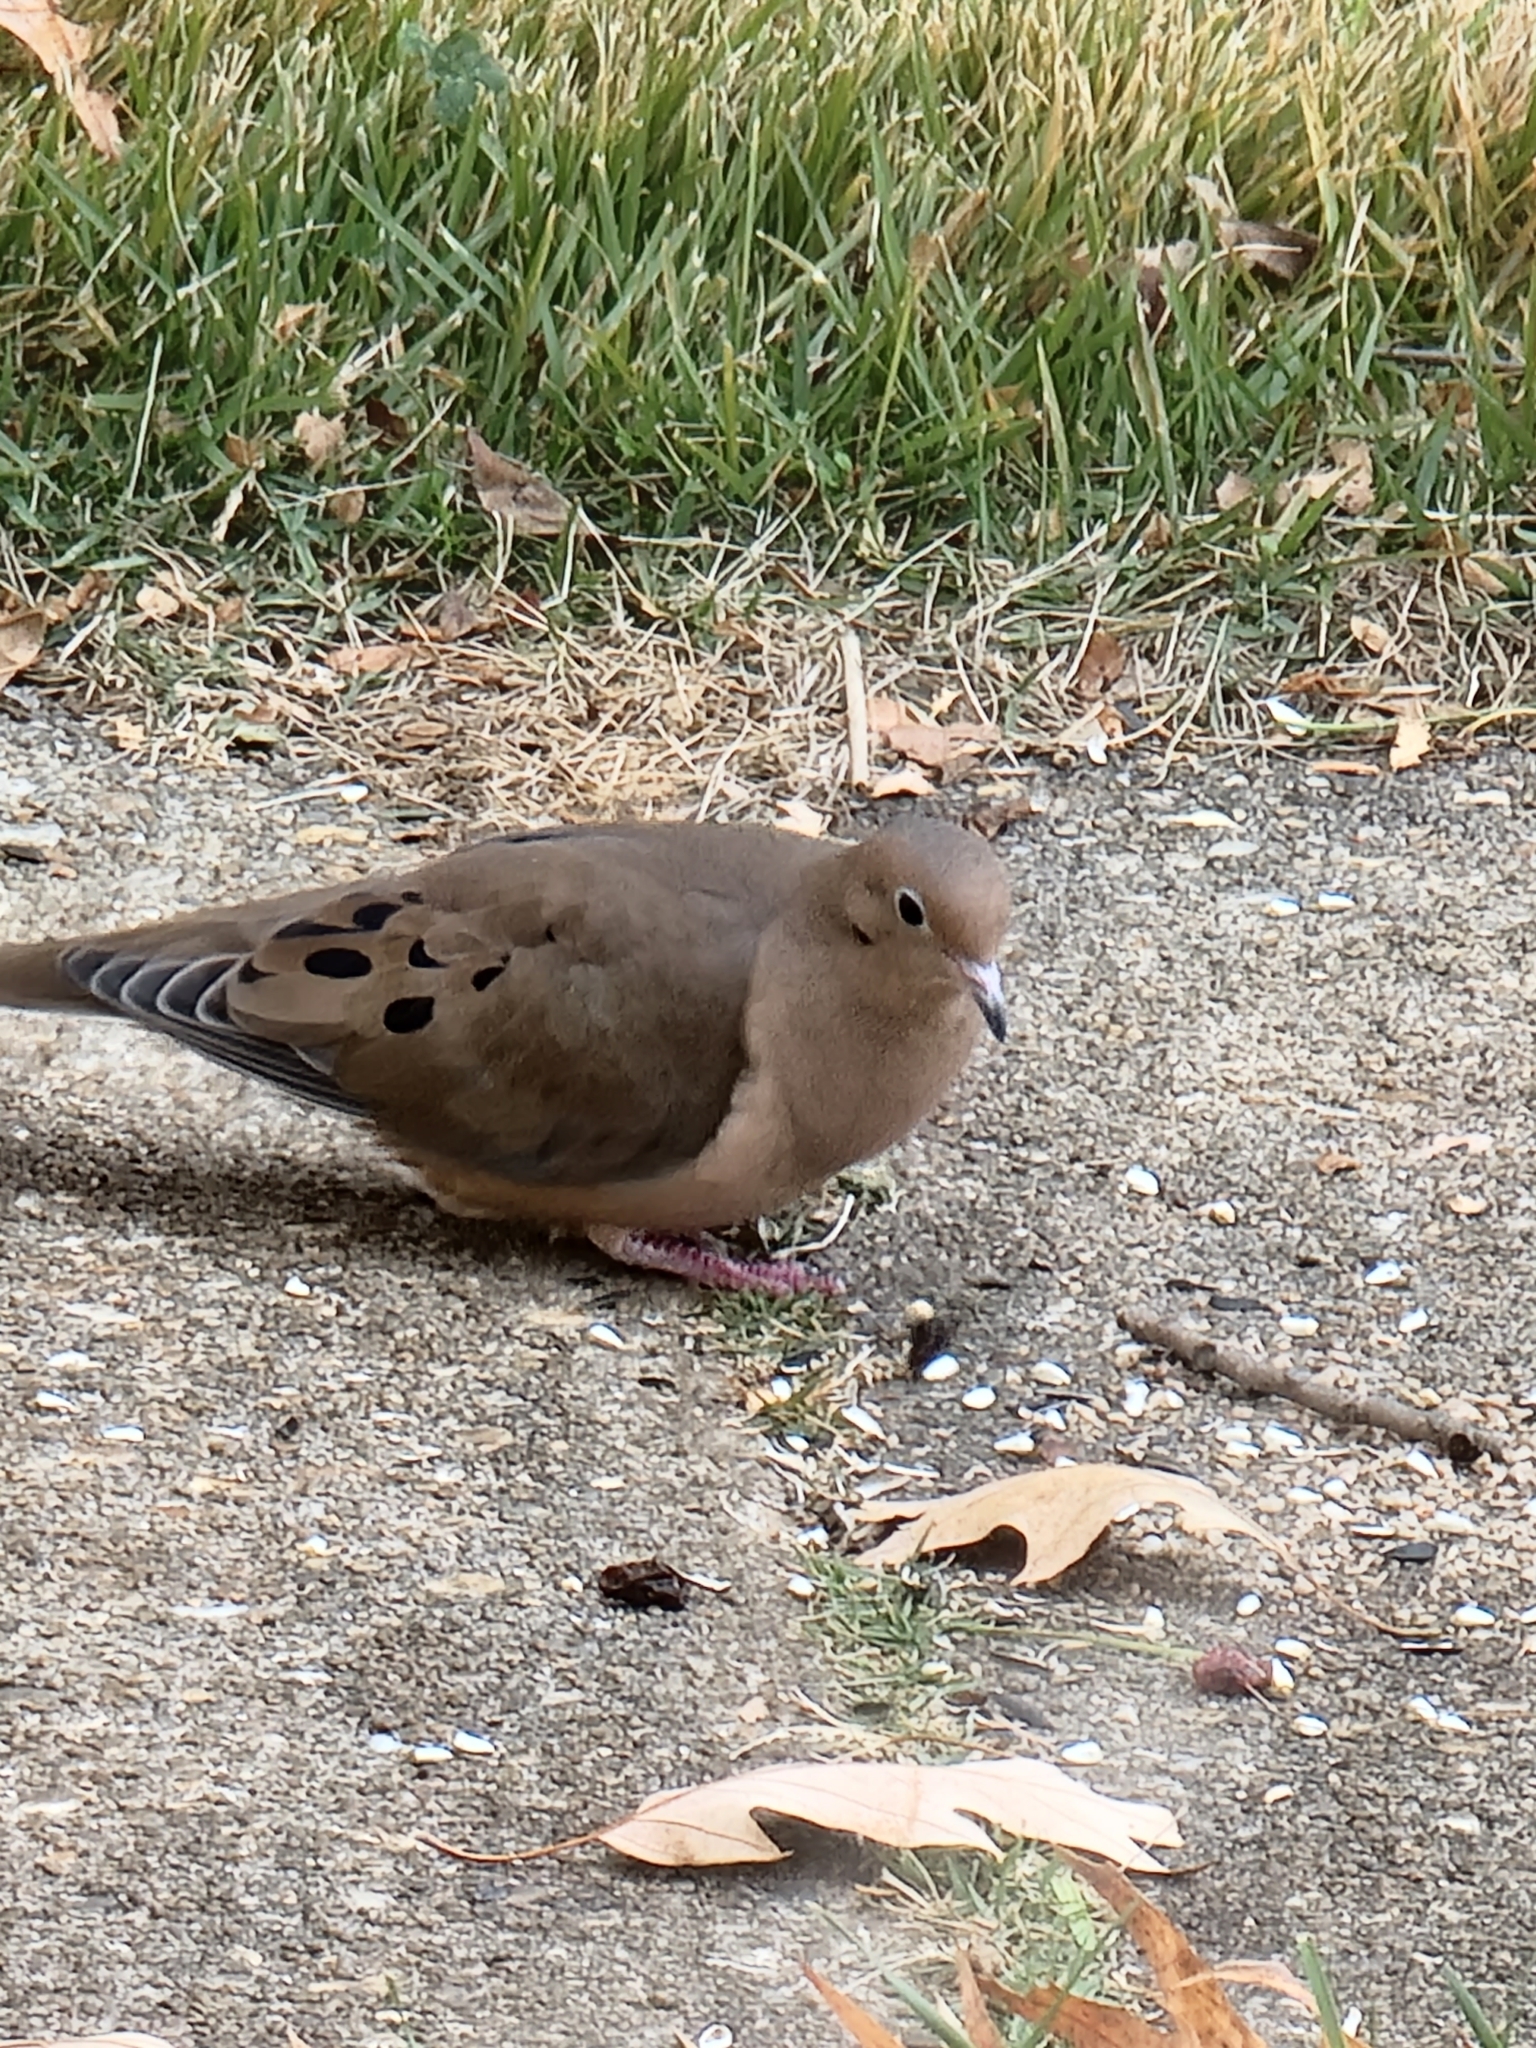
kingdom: Animalia
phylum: Chordata
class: Aves
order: Columbiformes
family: Columbidae
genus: Zenaida
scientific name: Zenaida macroura
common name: Mourning dove
